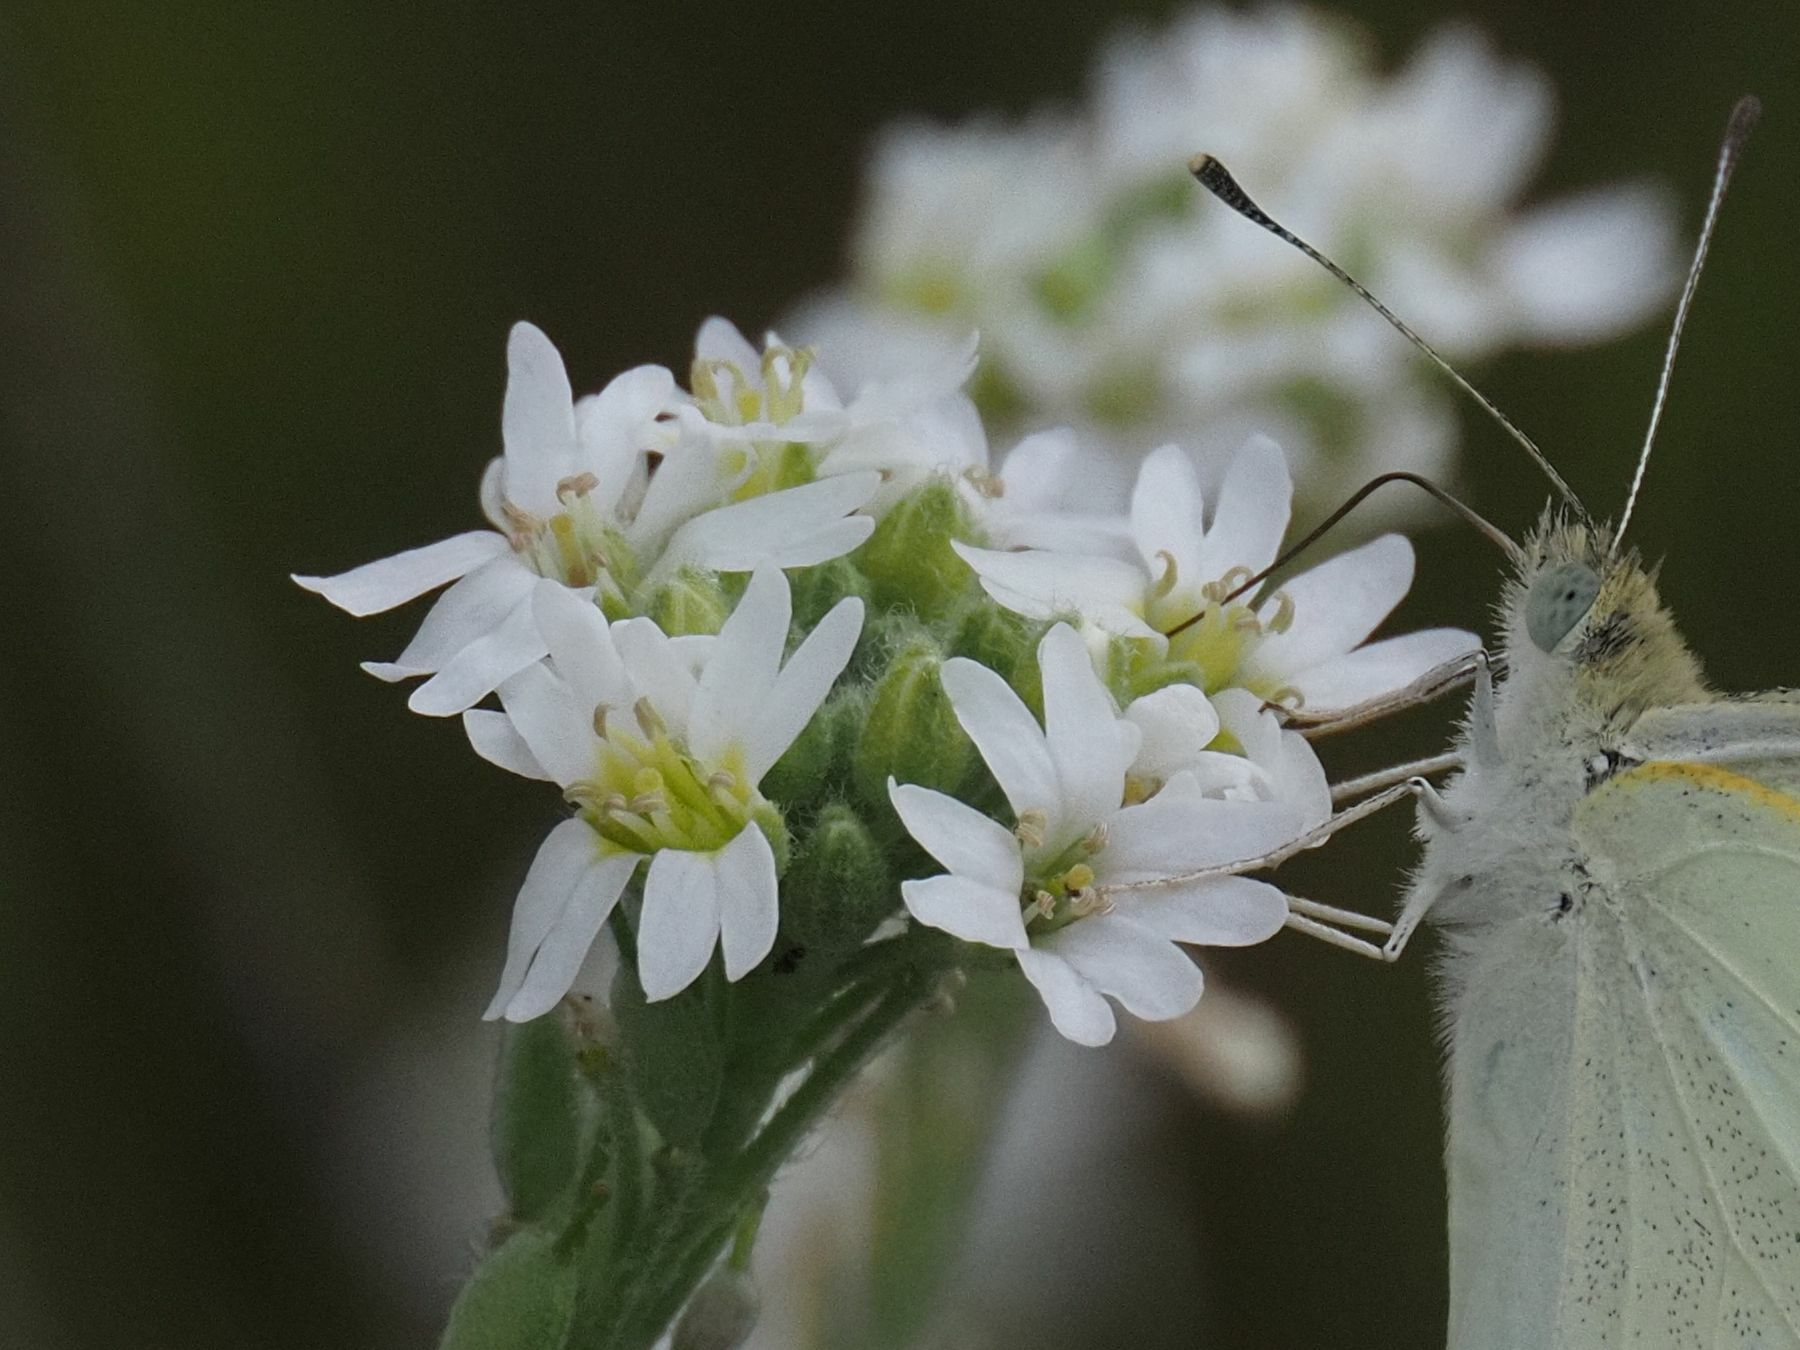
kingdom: Plantae
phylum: Tracheophyta
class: Magnoliopsida
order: Brassicales
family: Brassicaceae
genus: Berteroa
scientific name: Berteroa incana
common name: Hoary alison
